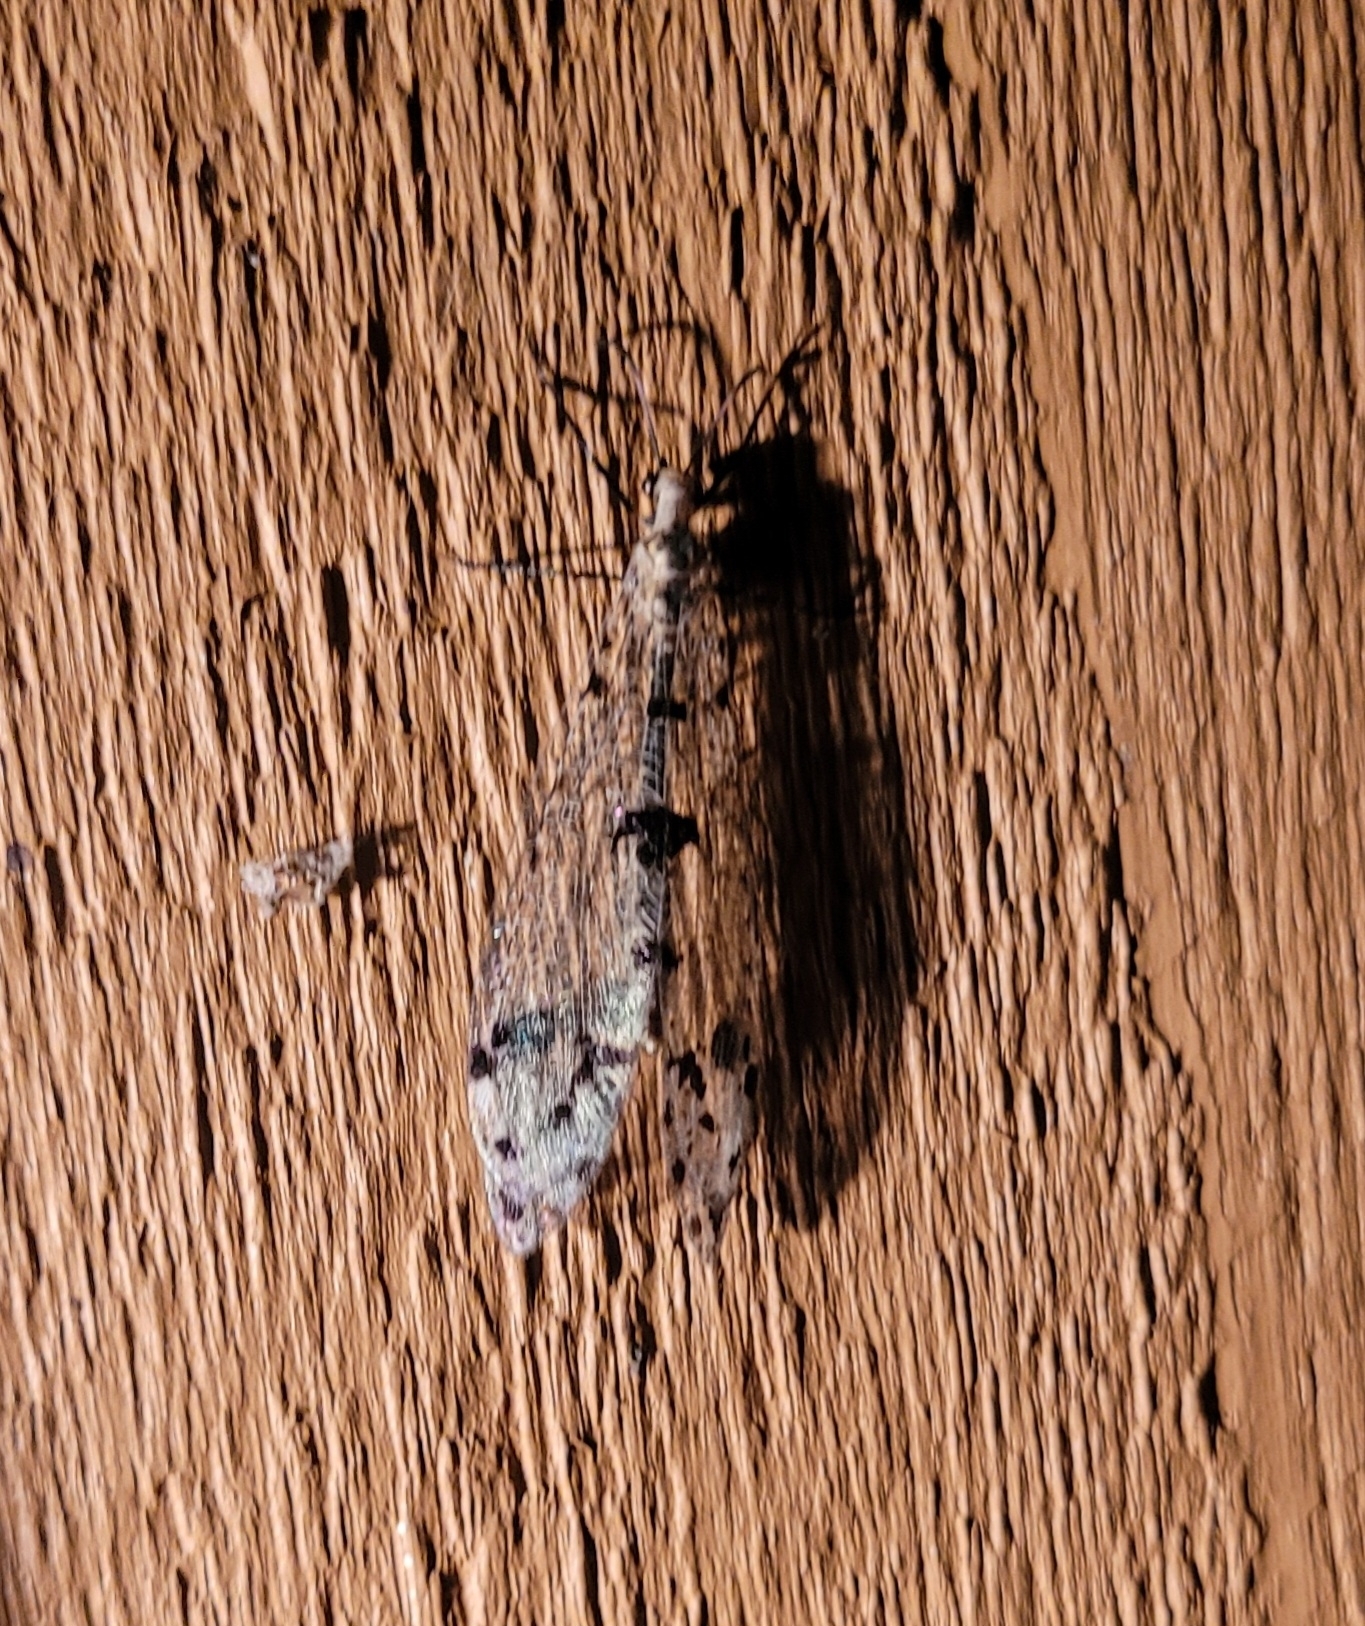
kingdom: Animalia
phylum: Arthropoda
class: Insecta
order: Neuroptera
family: Myrmeleontidae
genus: Dendroleon
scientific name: Dendroleon obsoletus
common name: Eastern spotted-winged antlion
